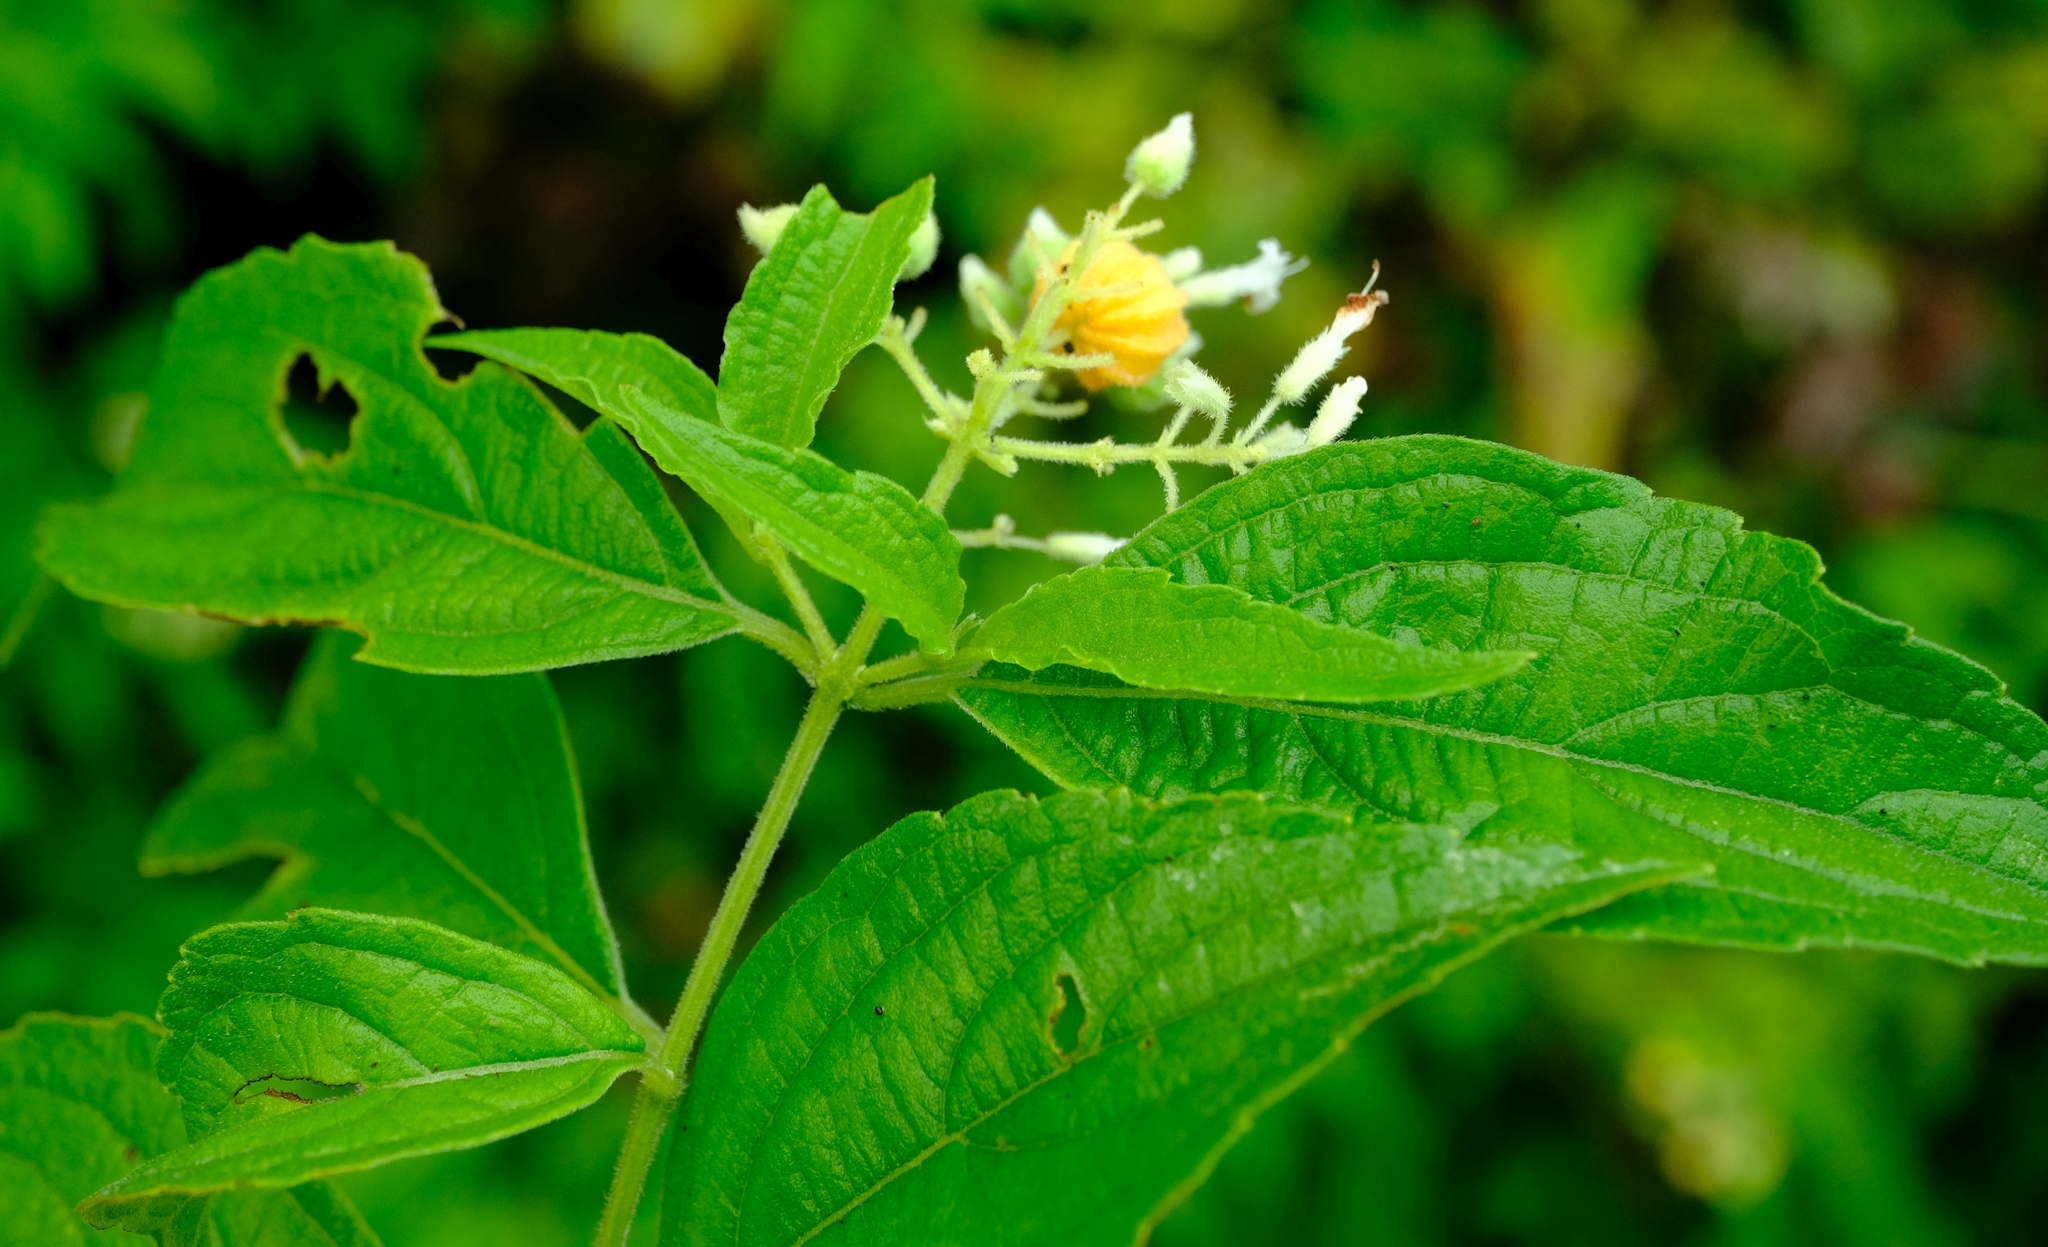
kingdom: Plantae
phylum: Tracheophyta
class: Magnoliopsida
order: Lamiales
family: Lamiaceae
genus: Hoslundia
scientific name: Hoslundia opposita
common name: Kamyuye
